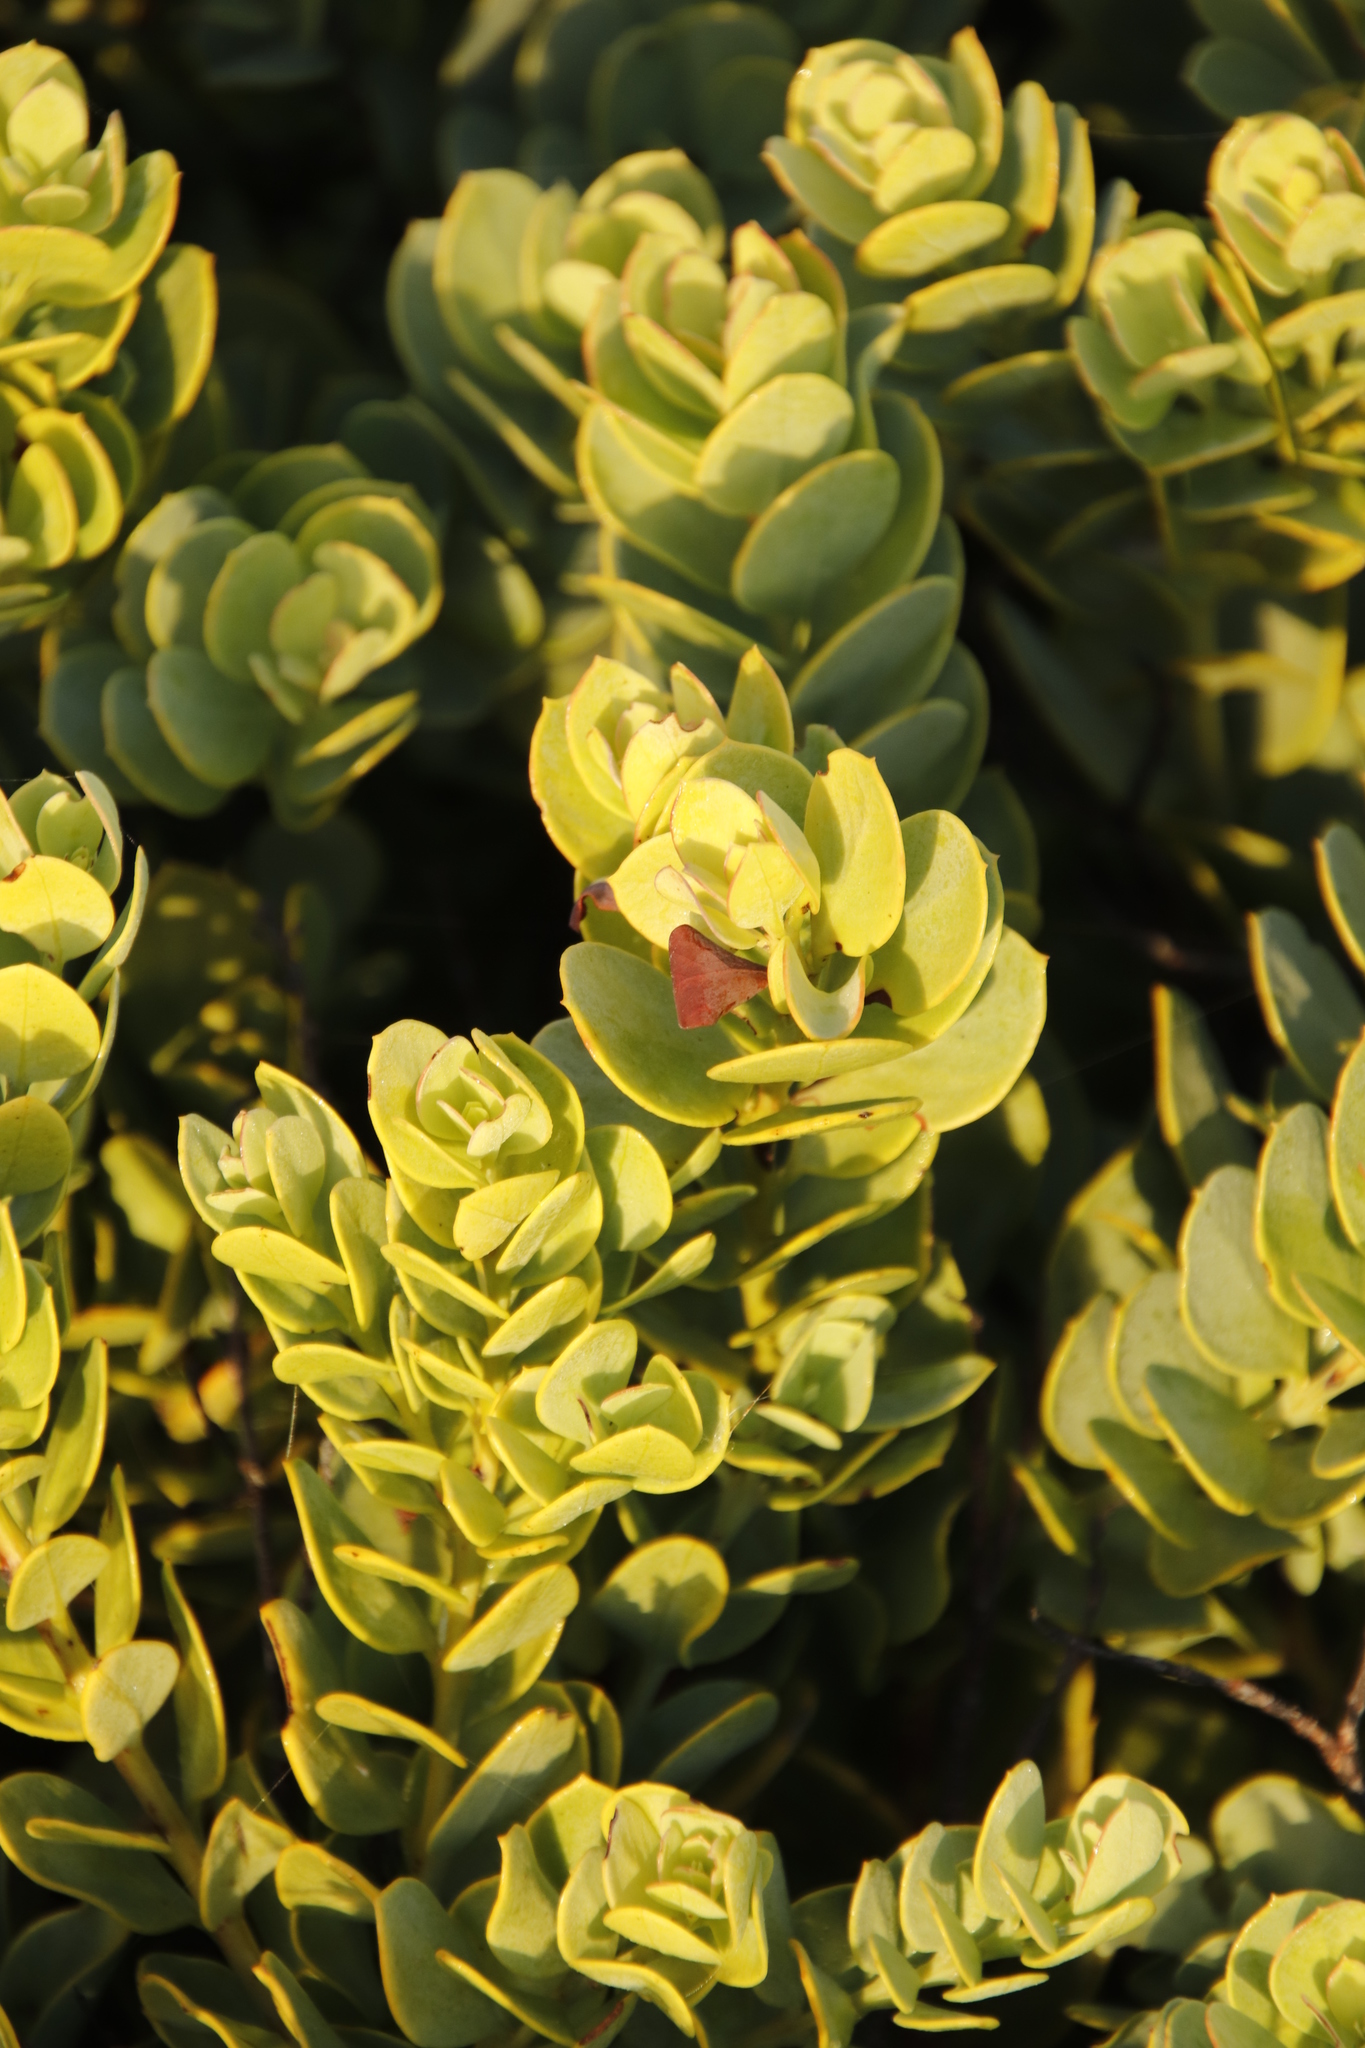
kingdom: Plantae
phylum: Tracheophyta
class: Magnoliopsida
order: Santalales
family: Santalaceae
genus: Osyris
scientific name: Osyris compressa
